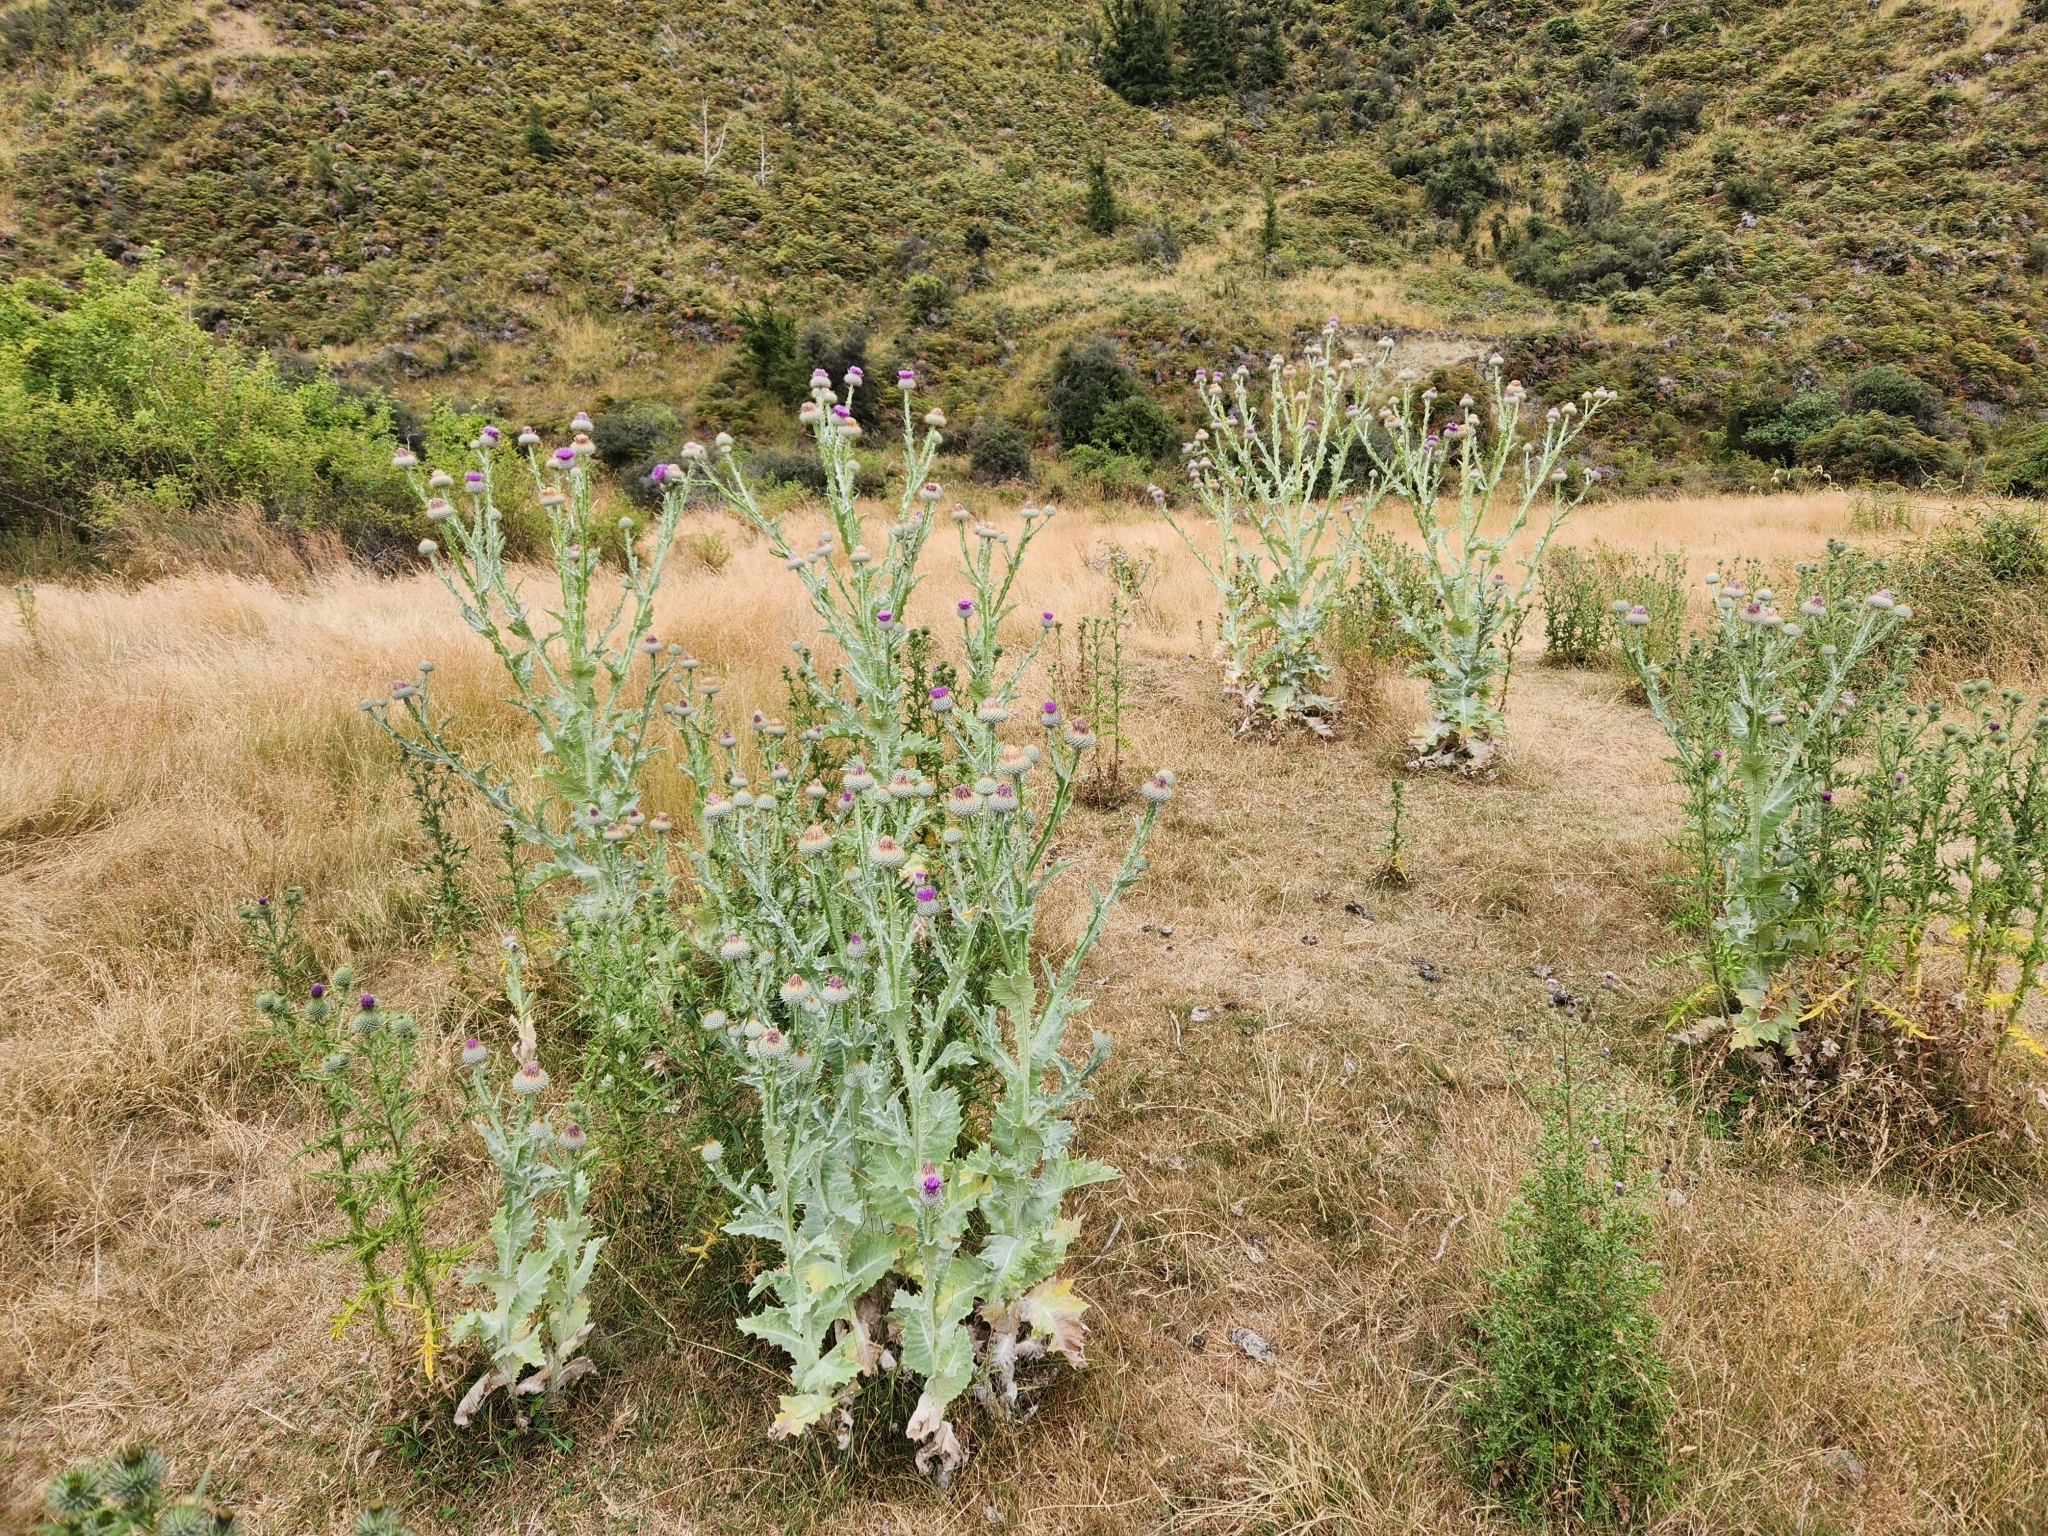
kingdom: Plantae
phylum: Tracheophyta
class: Magnoliopsida
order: Asterales
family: Asteraceae
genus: Onopordum
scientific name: Onopordum acanthium
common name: Scotch thistle
